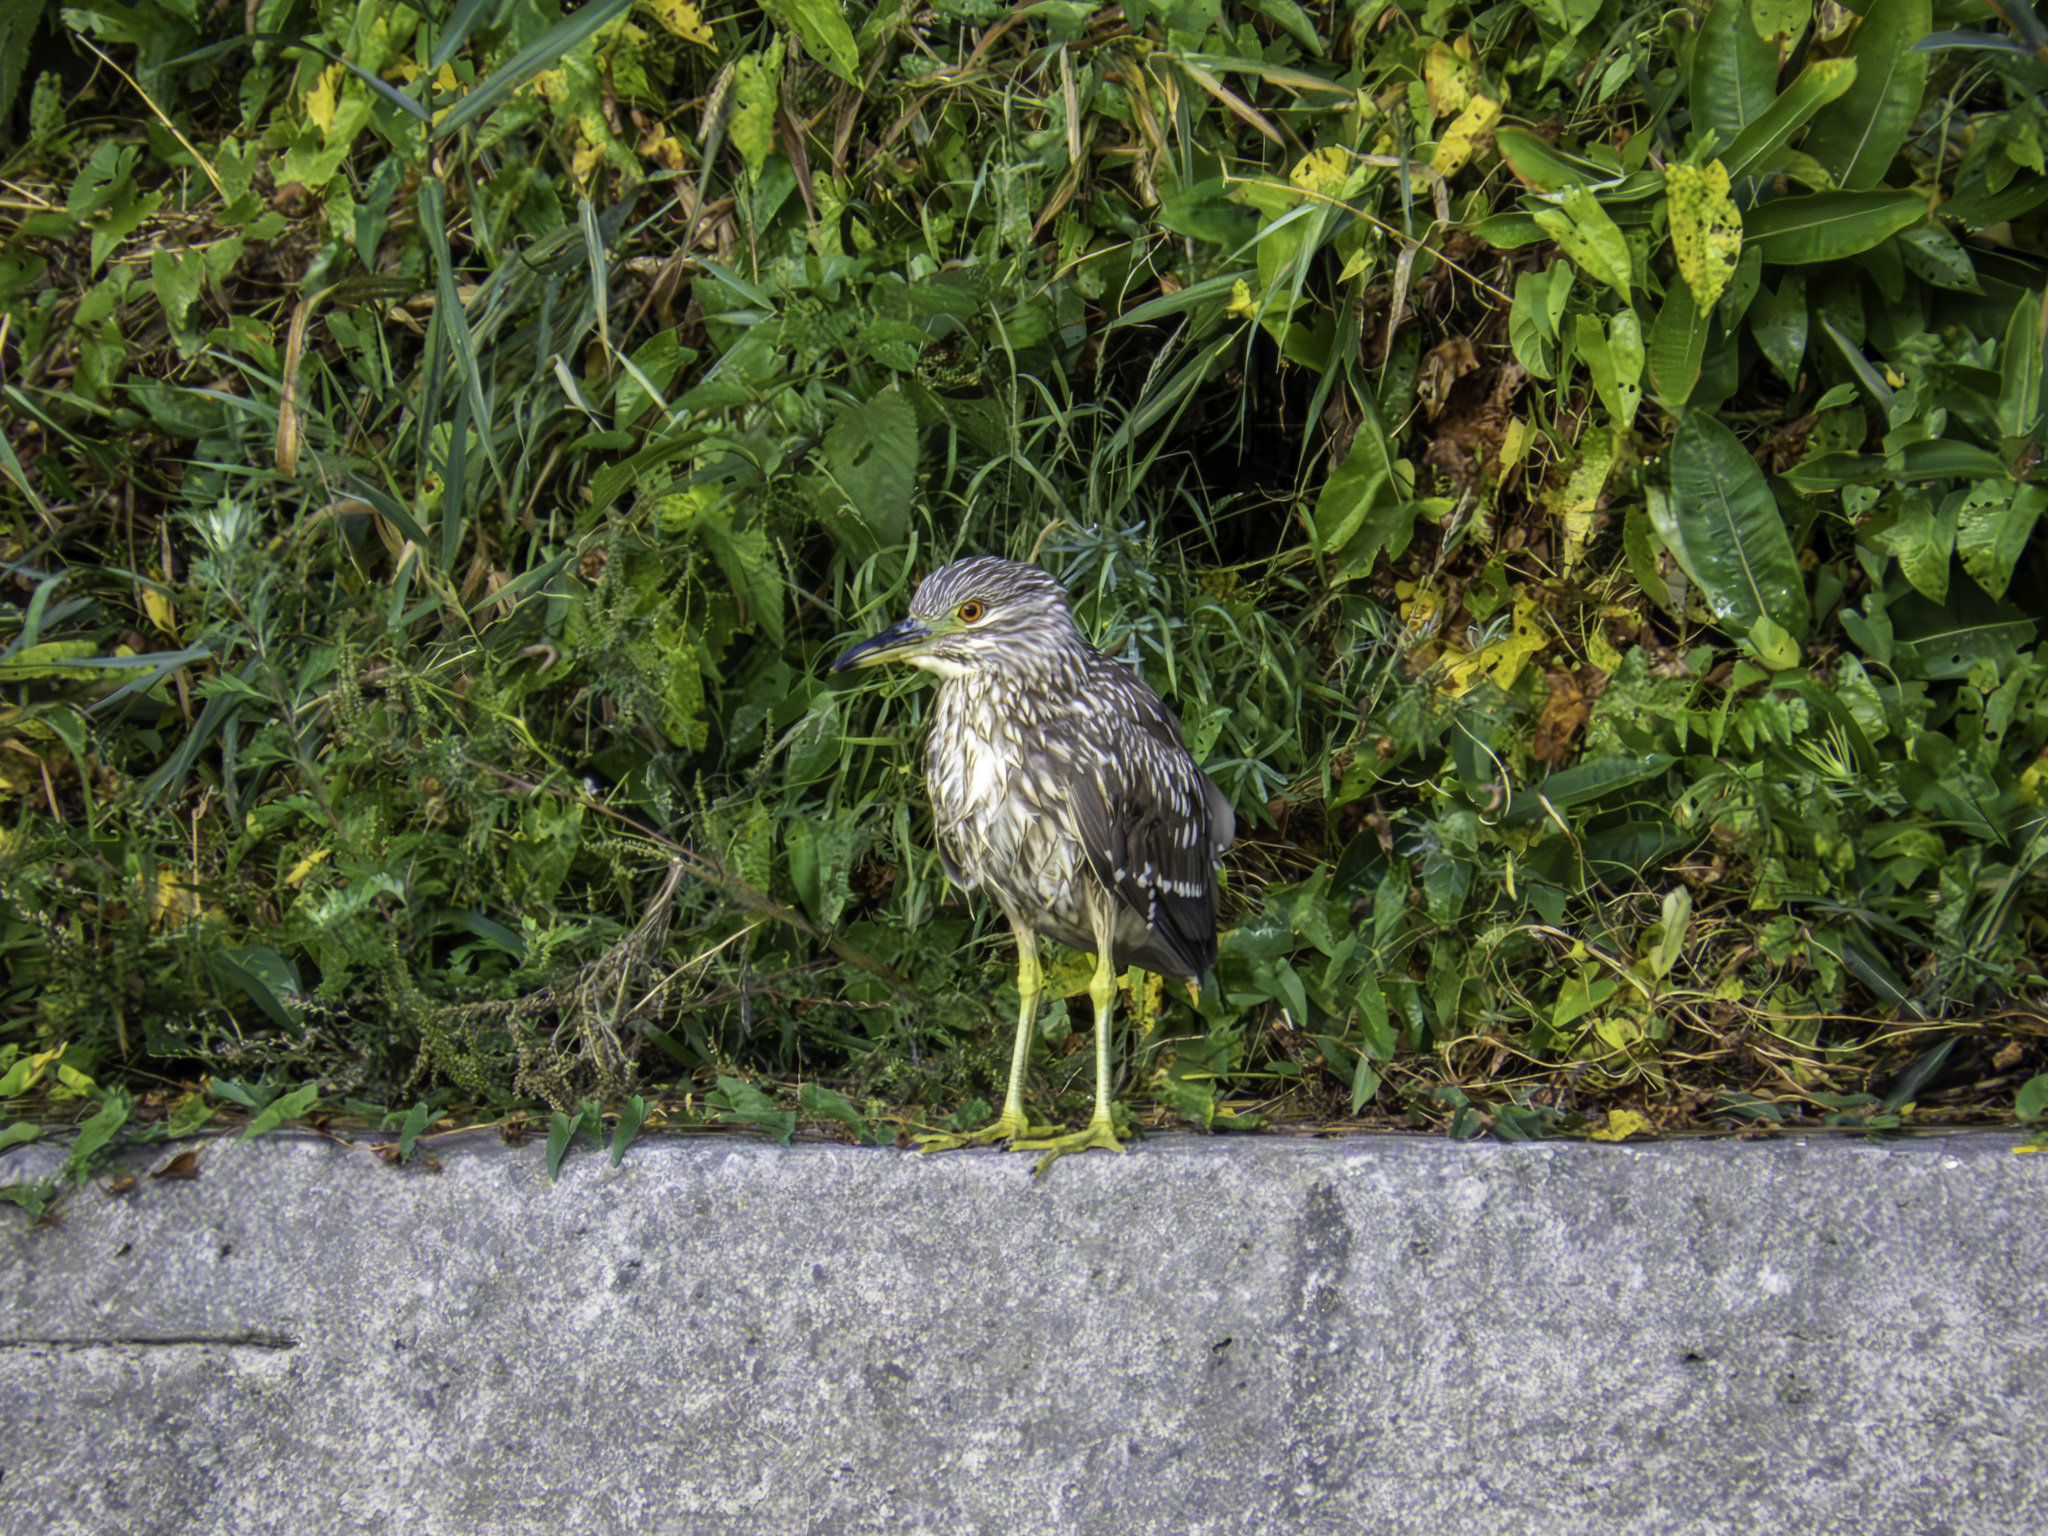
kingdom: Animalia
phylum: Chordata
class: Aves
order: Pelecaniformes
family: Ardeidae
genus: Nycticorax
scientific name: Nycticorax nycticorax
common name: Black-crowned night heron
